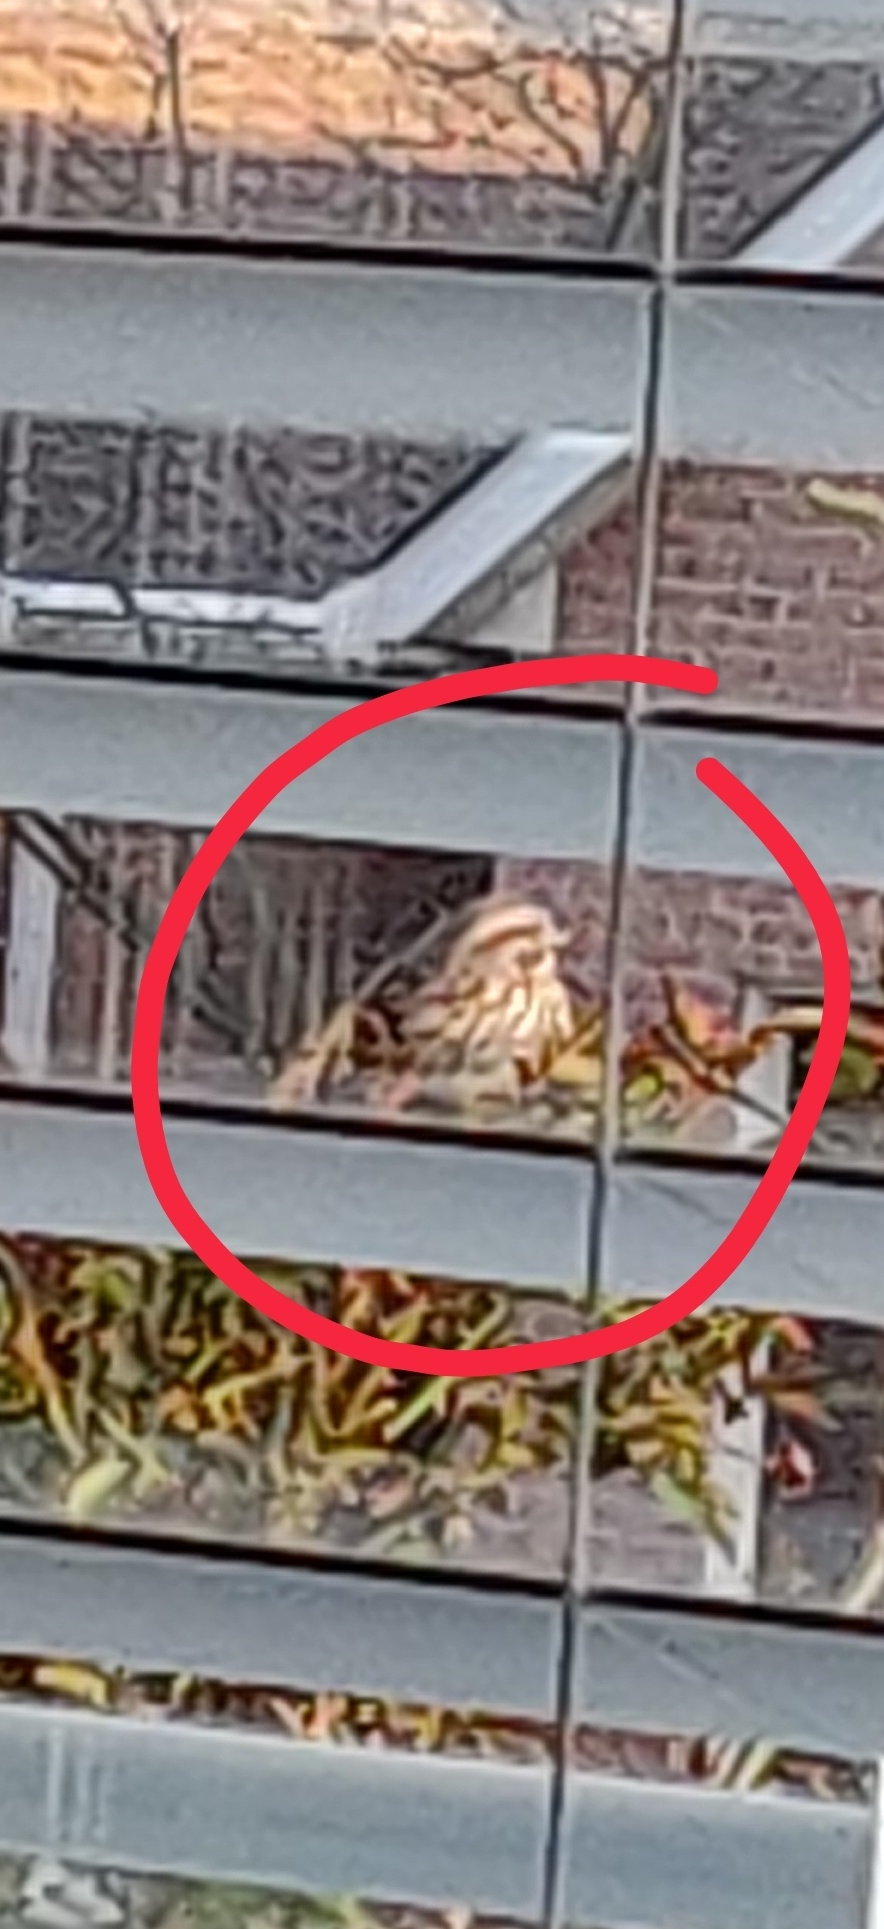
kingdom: Animalia
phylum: Chordata
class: Aves
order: Passeriformes
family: Passerellidae
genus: Melospiza
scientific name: Melospiza melodia
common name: Song sparrow
